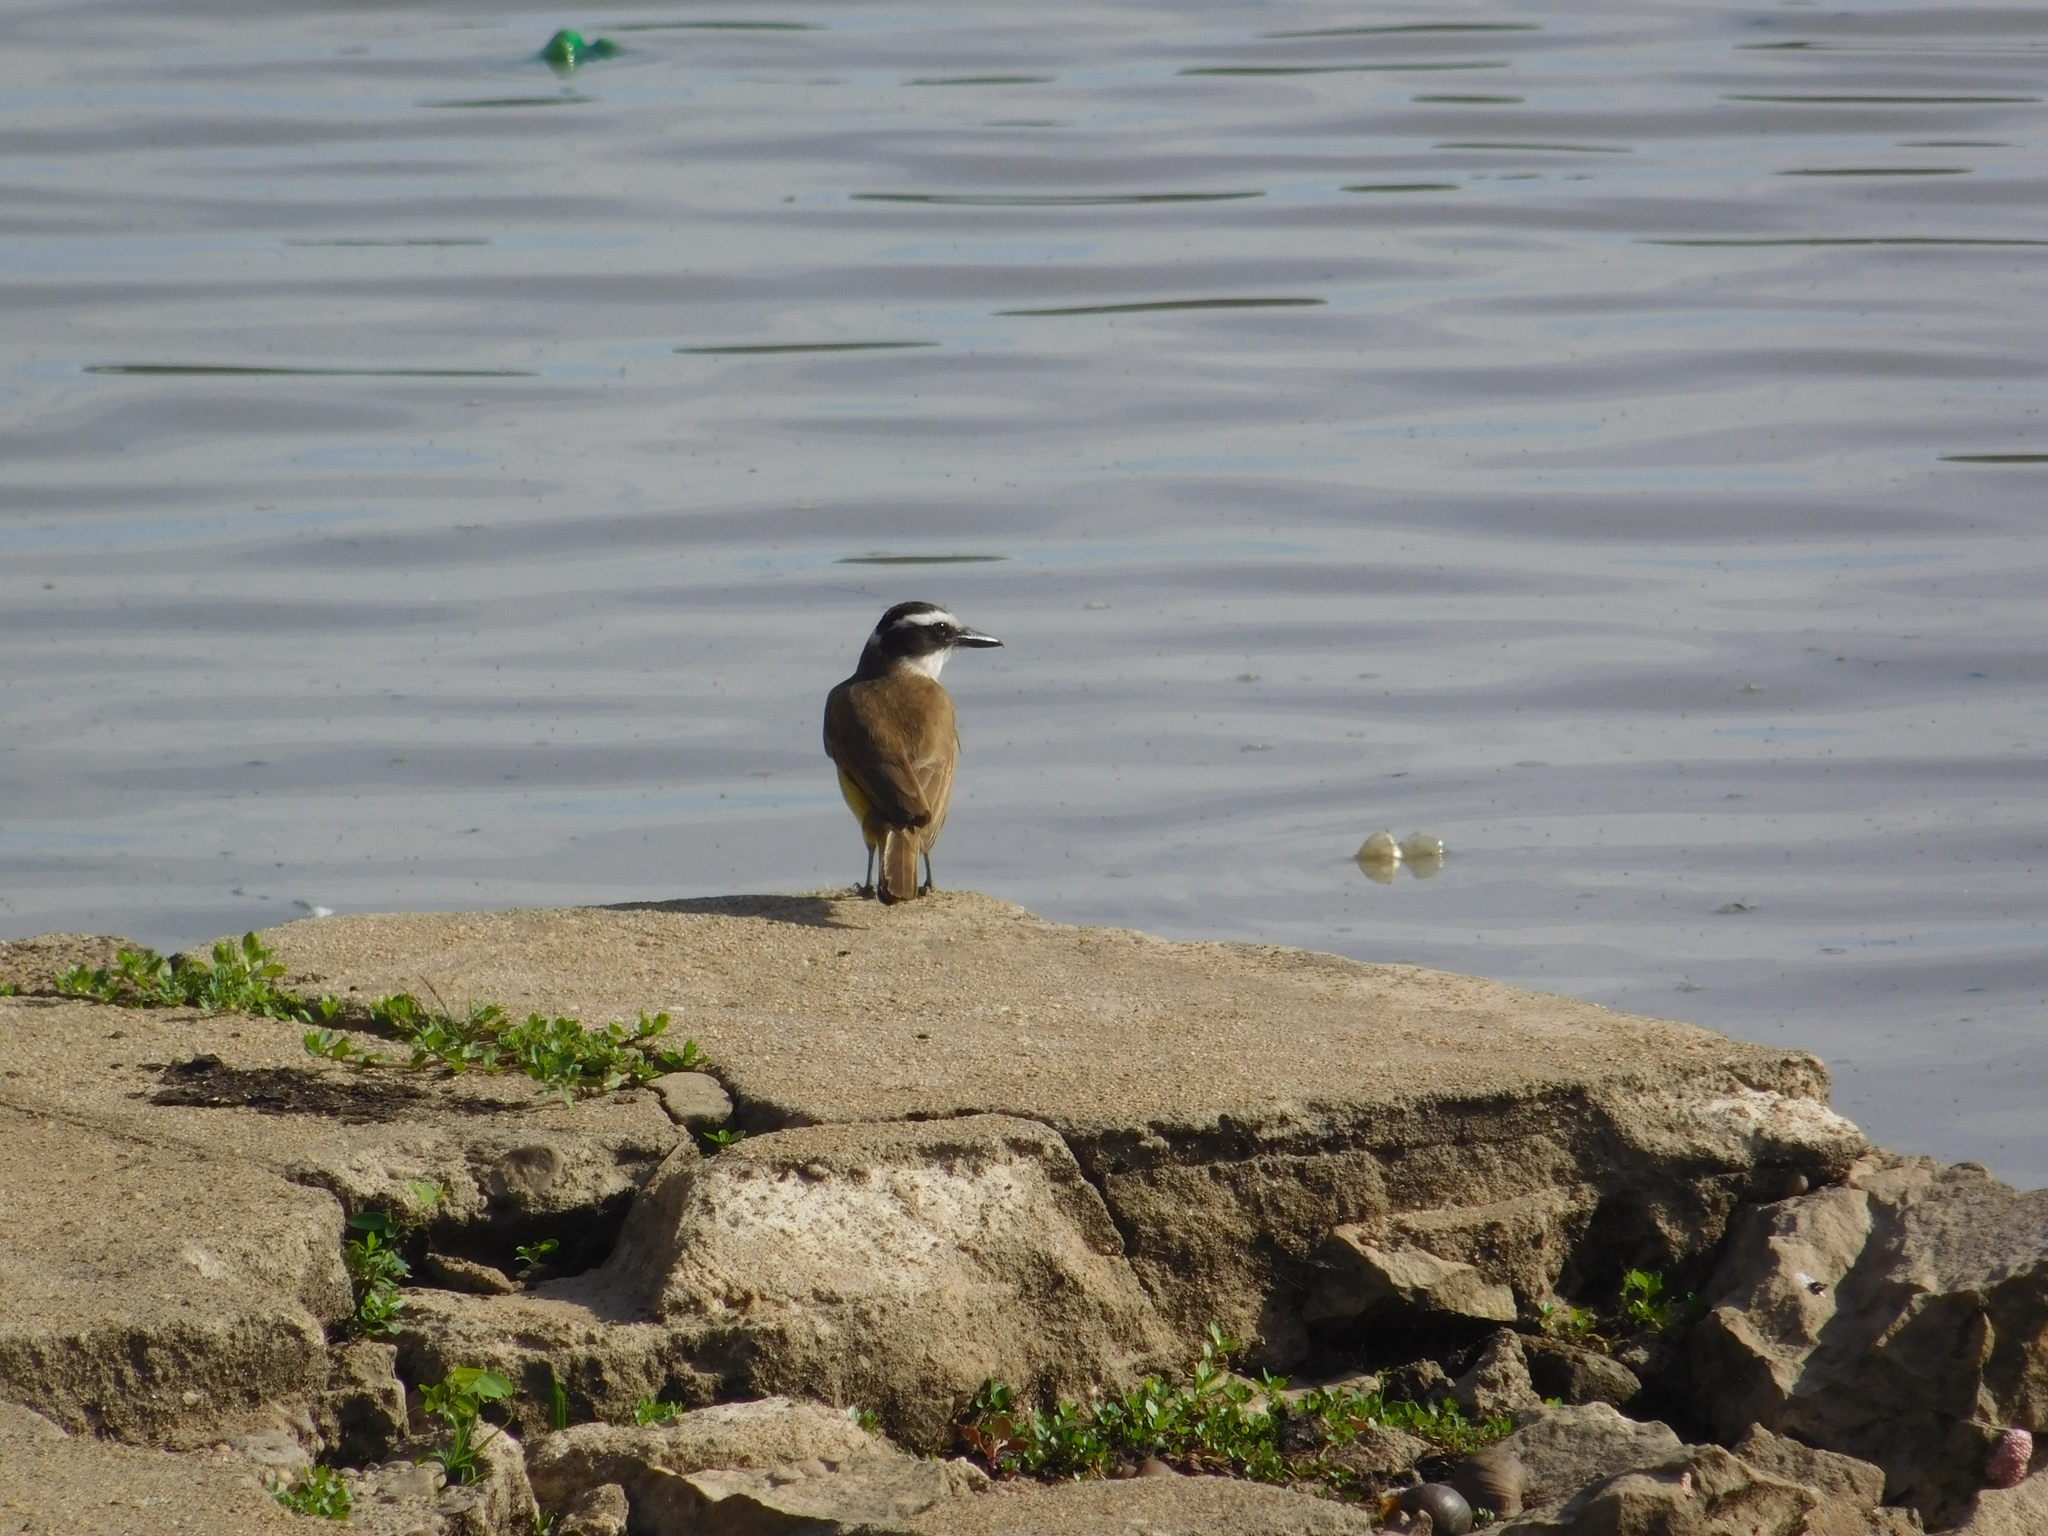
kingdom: Animalia
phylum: Chordata
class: Aves
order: Passeriformes
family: Tyrannidae
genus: Pitangus
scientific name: Pitangus sulphuratus
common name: Great kiskadee
